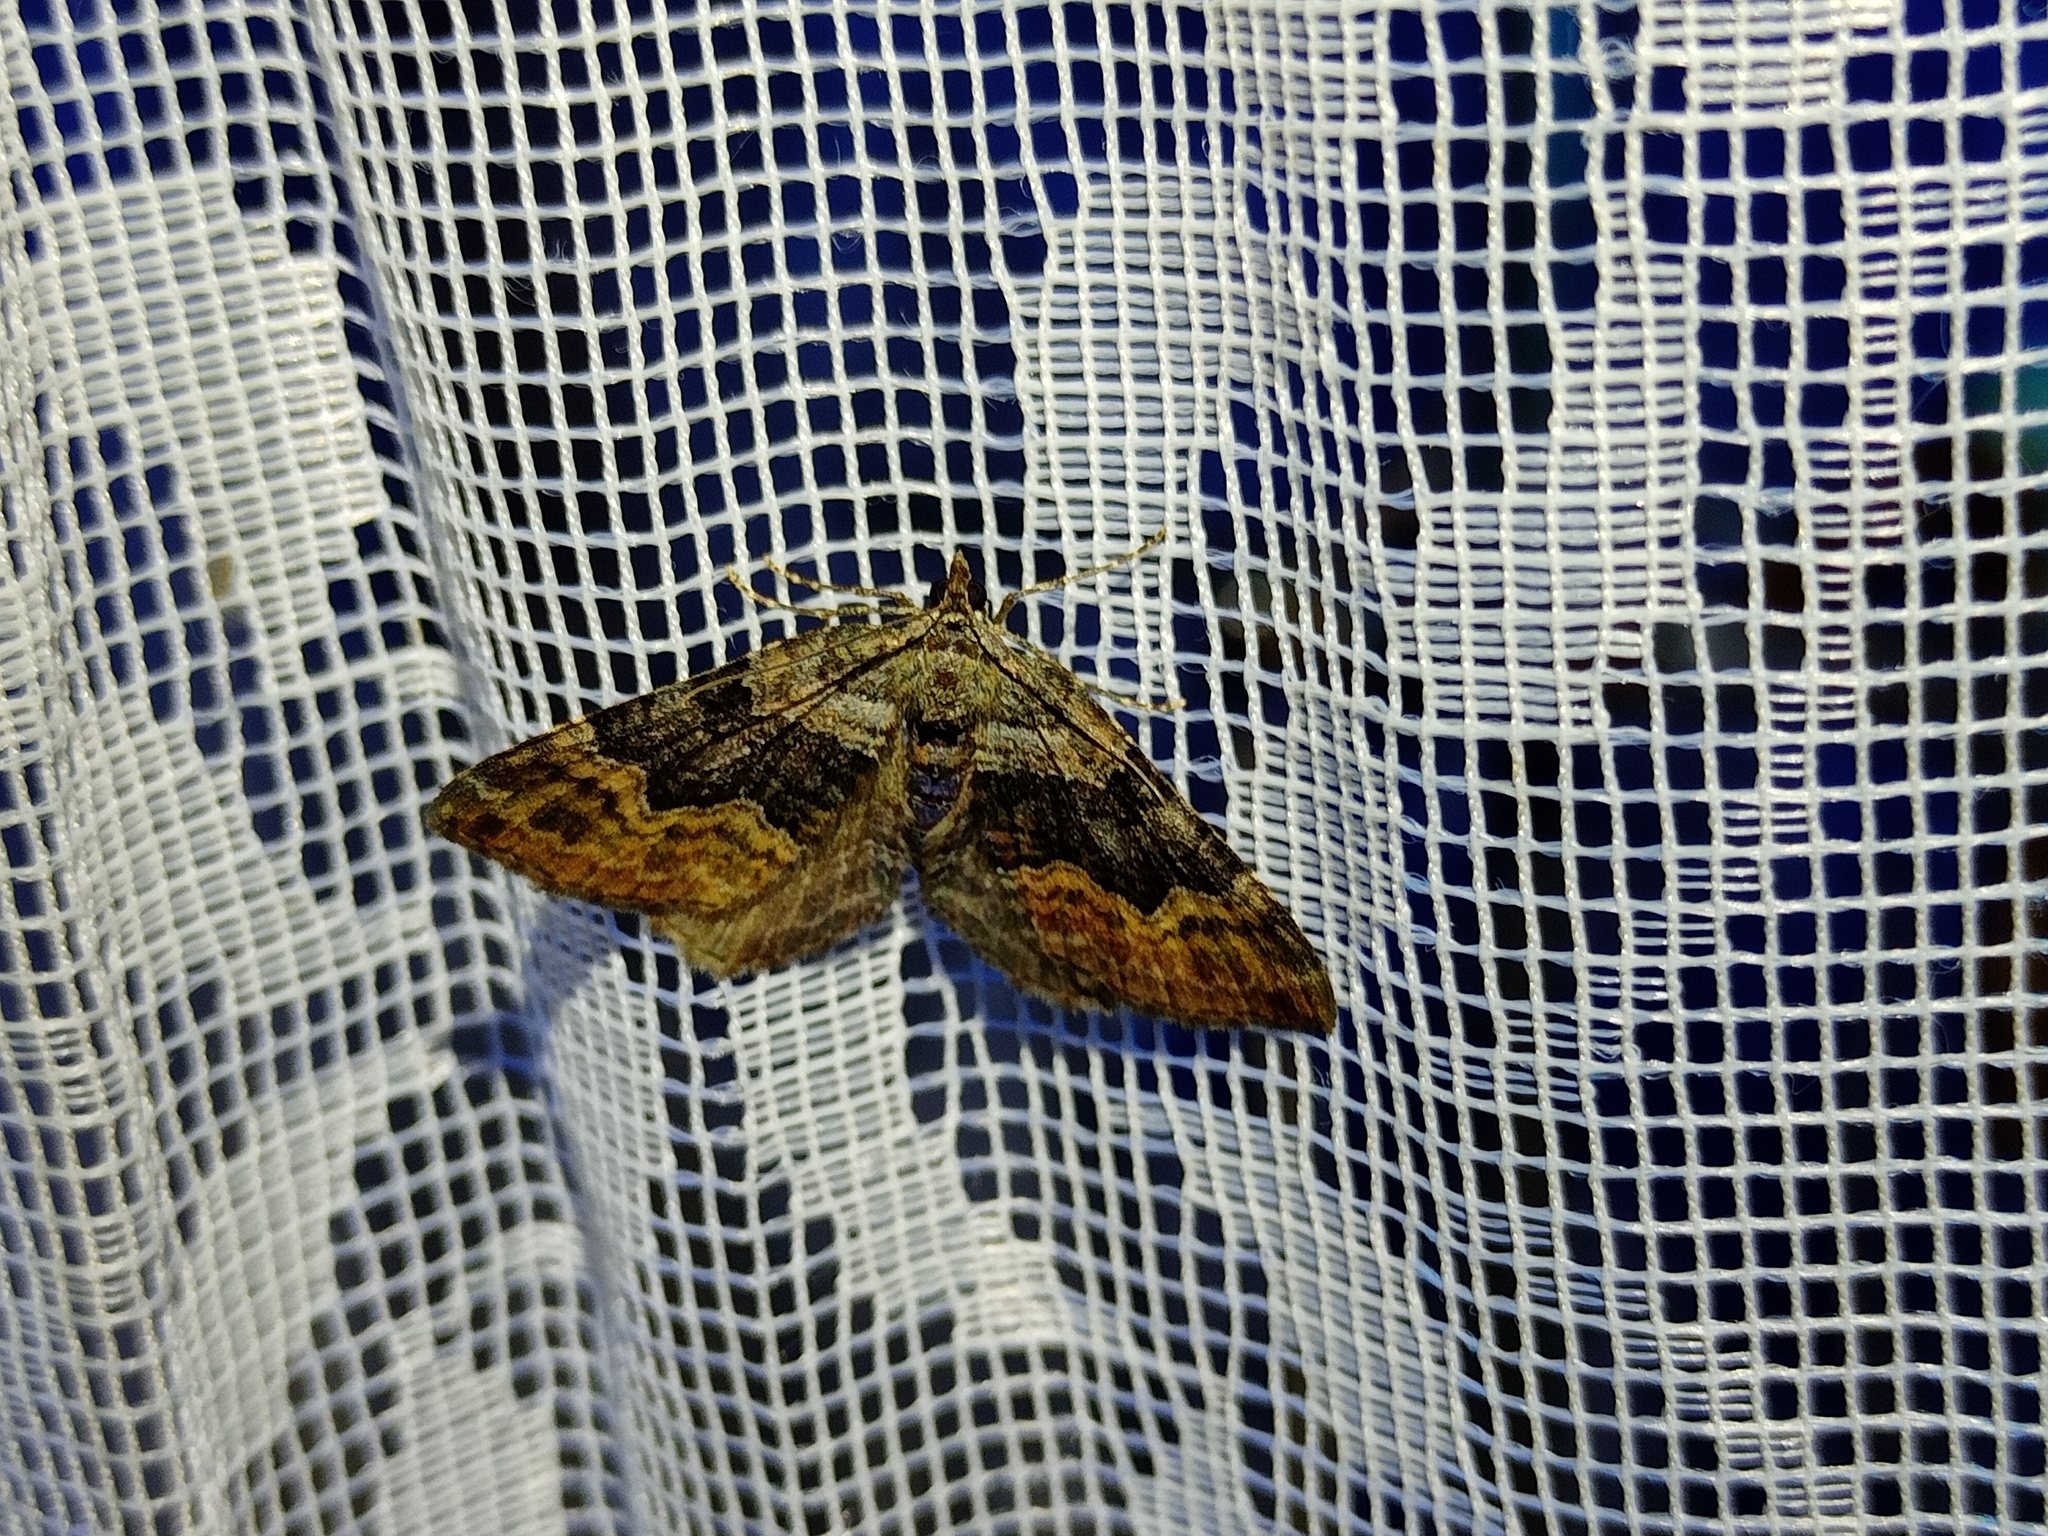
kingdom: Animalia
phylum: Arthropoda
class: Insecta
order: Lepidoptera
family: Geometridae
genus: Xanthorhoe
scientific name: Xanthorhoe quadrifasiata
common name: Large twin-spot carpet
